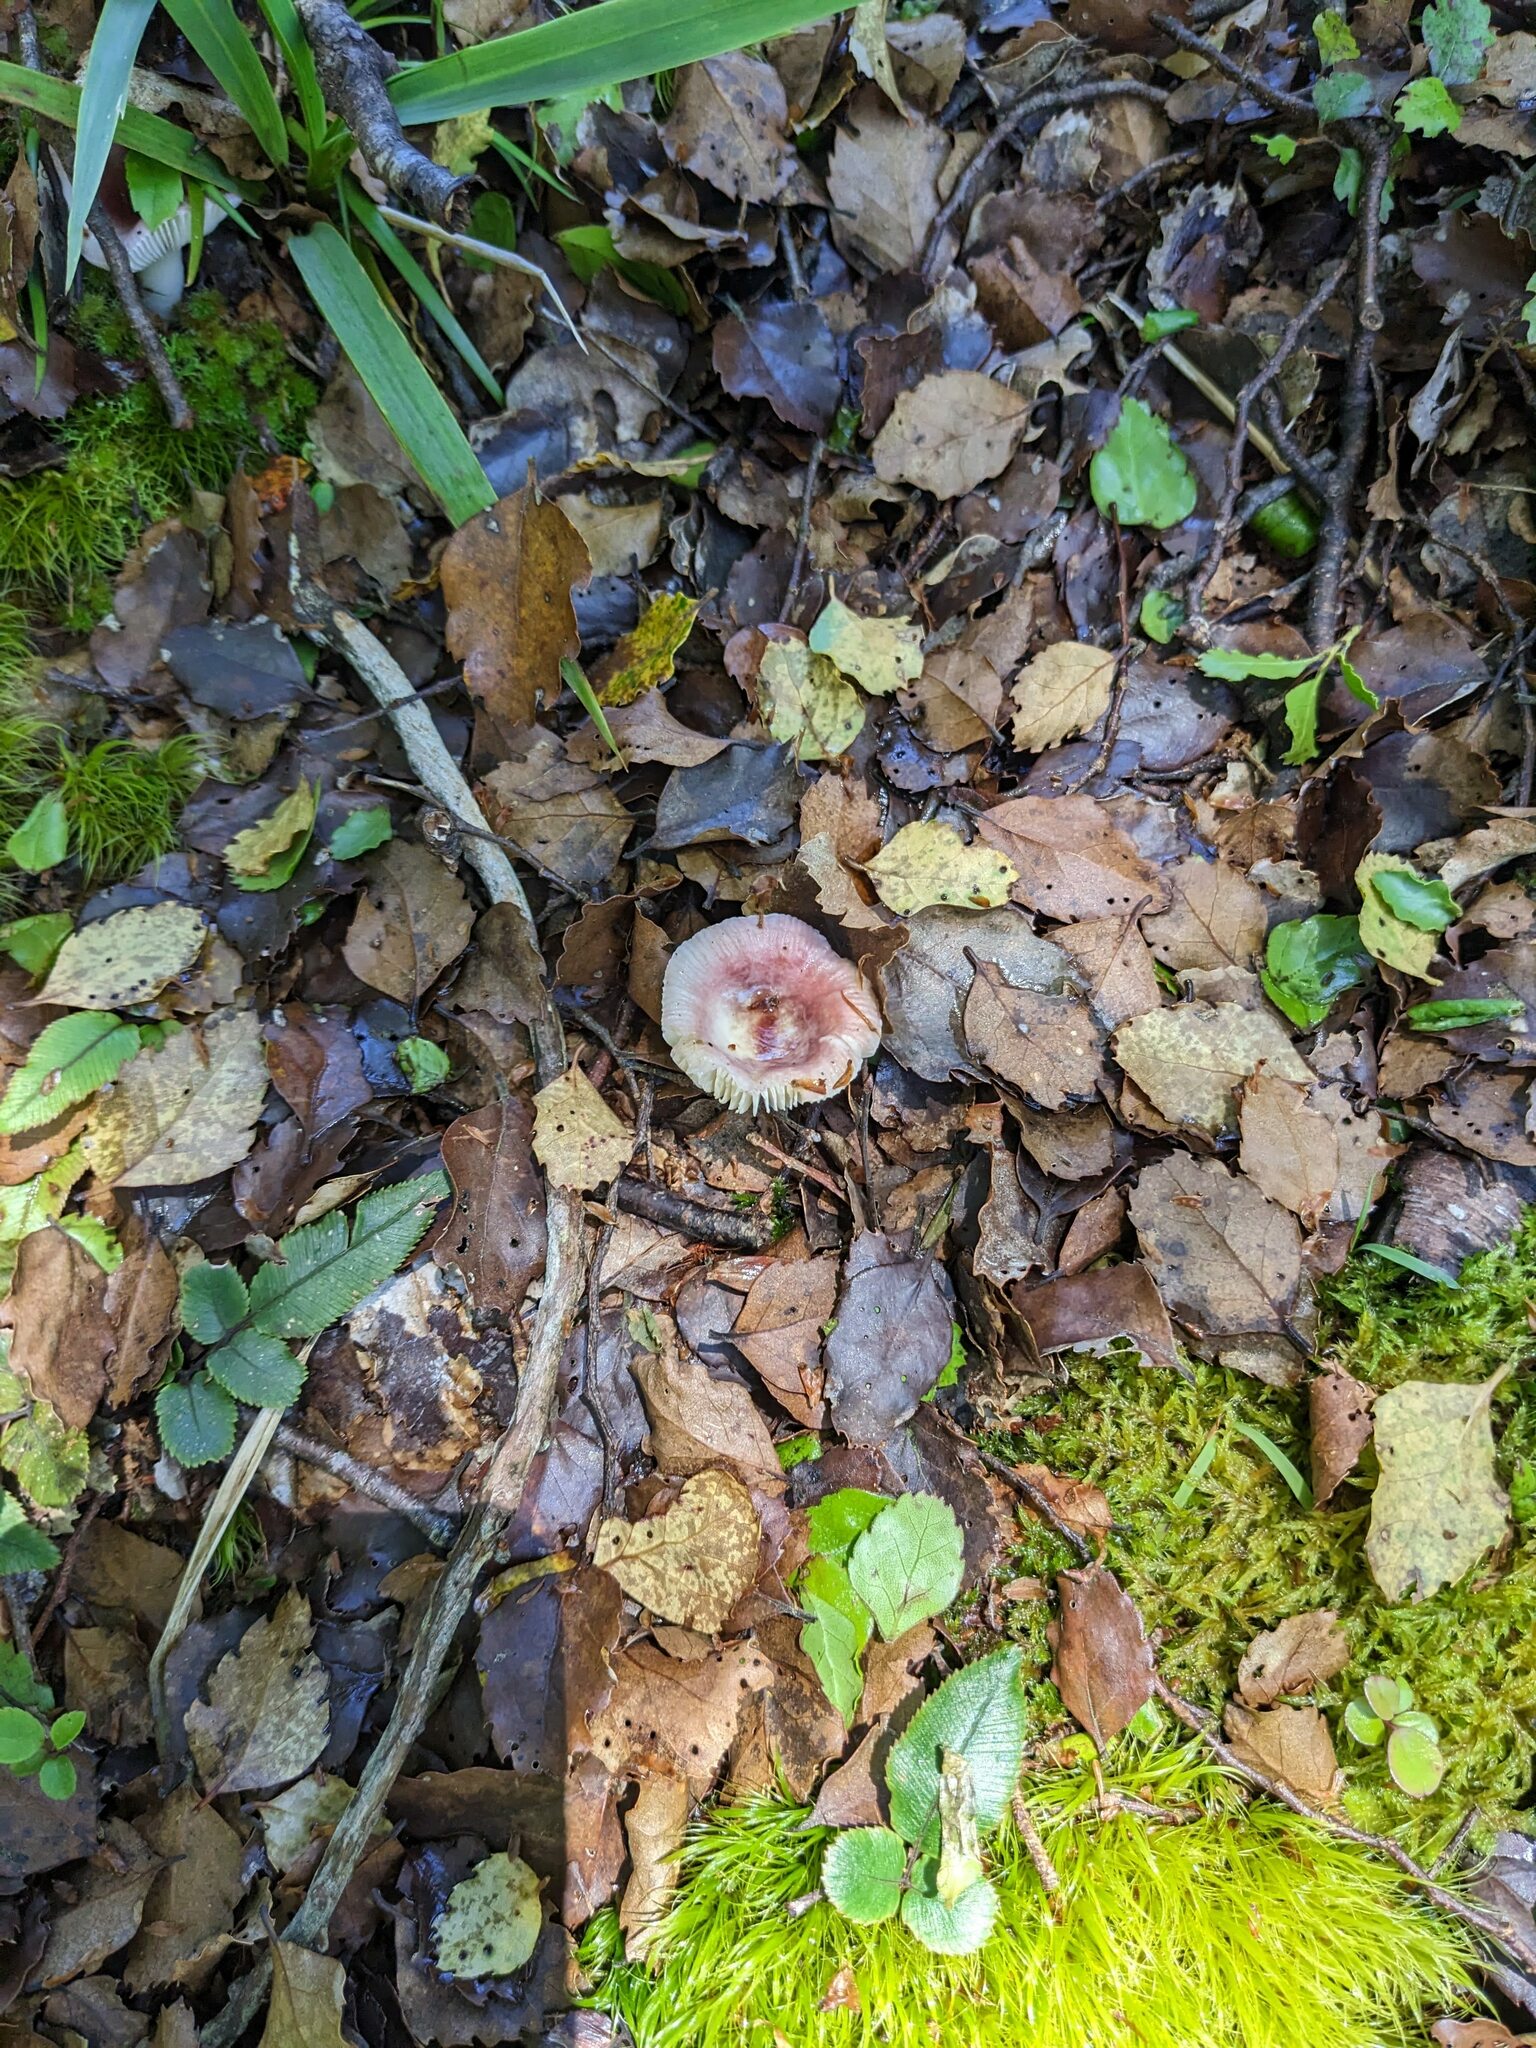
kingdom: Fungi
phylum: Basidiomycota
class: Agaricomycetes
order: Russulales
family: Russulaceae
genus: Russula
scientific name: Russula roseopileata
